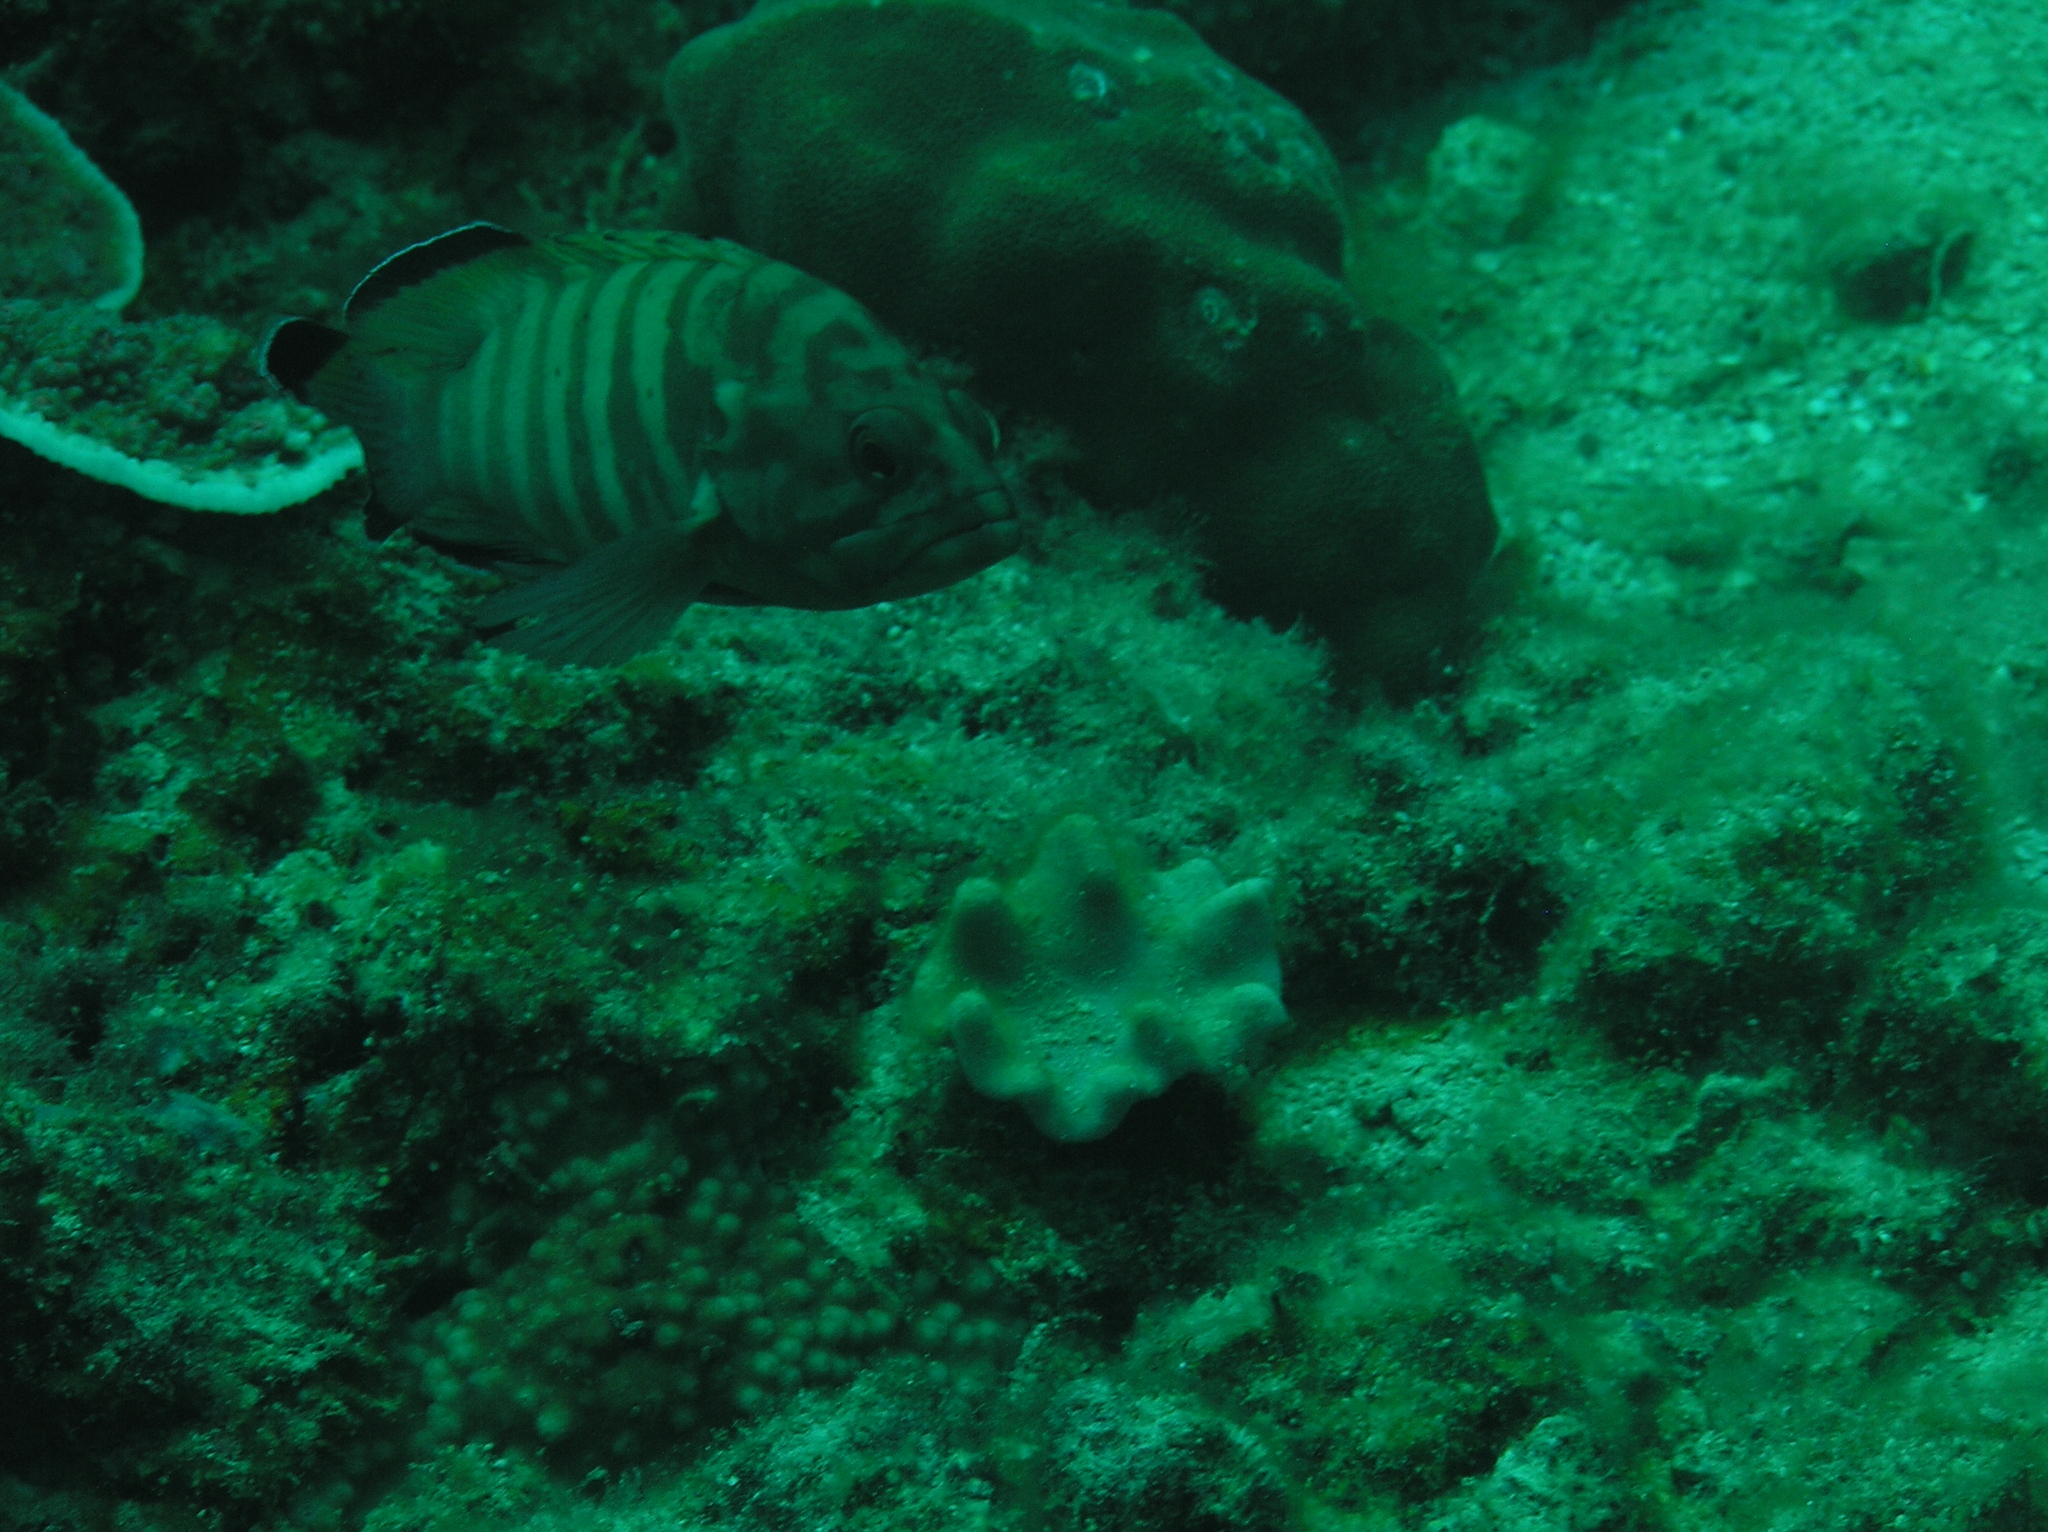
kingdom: Animalia
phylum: Chordata
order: Perciformes
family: Serranidae
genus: Cephalopholis
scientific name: Cephalopholis boenak
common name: Chocolate hind
